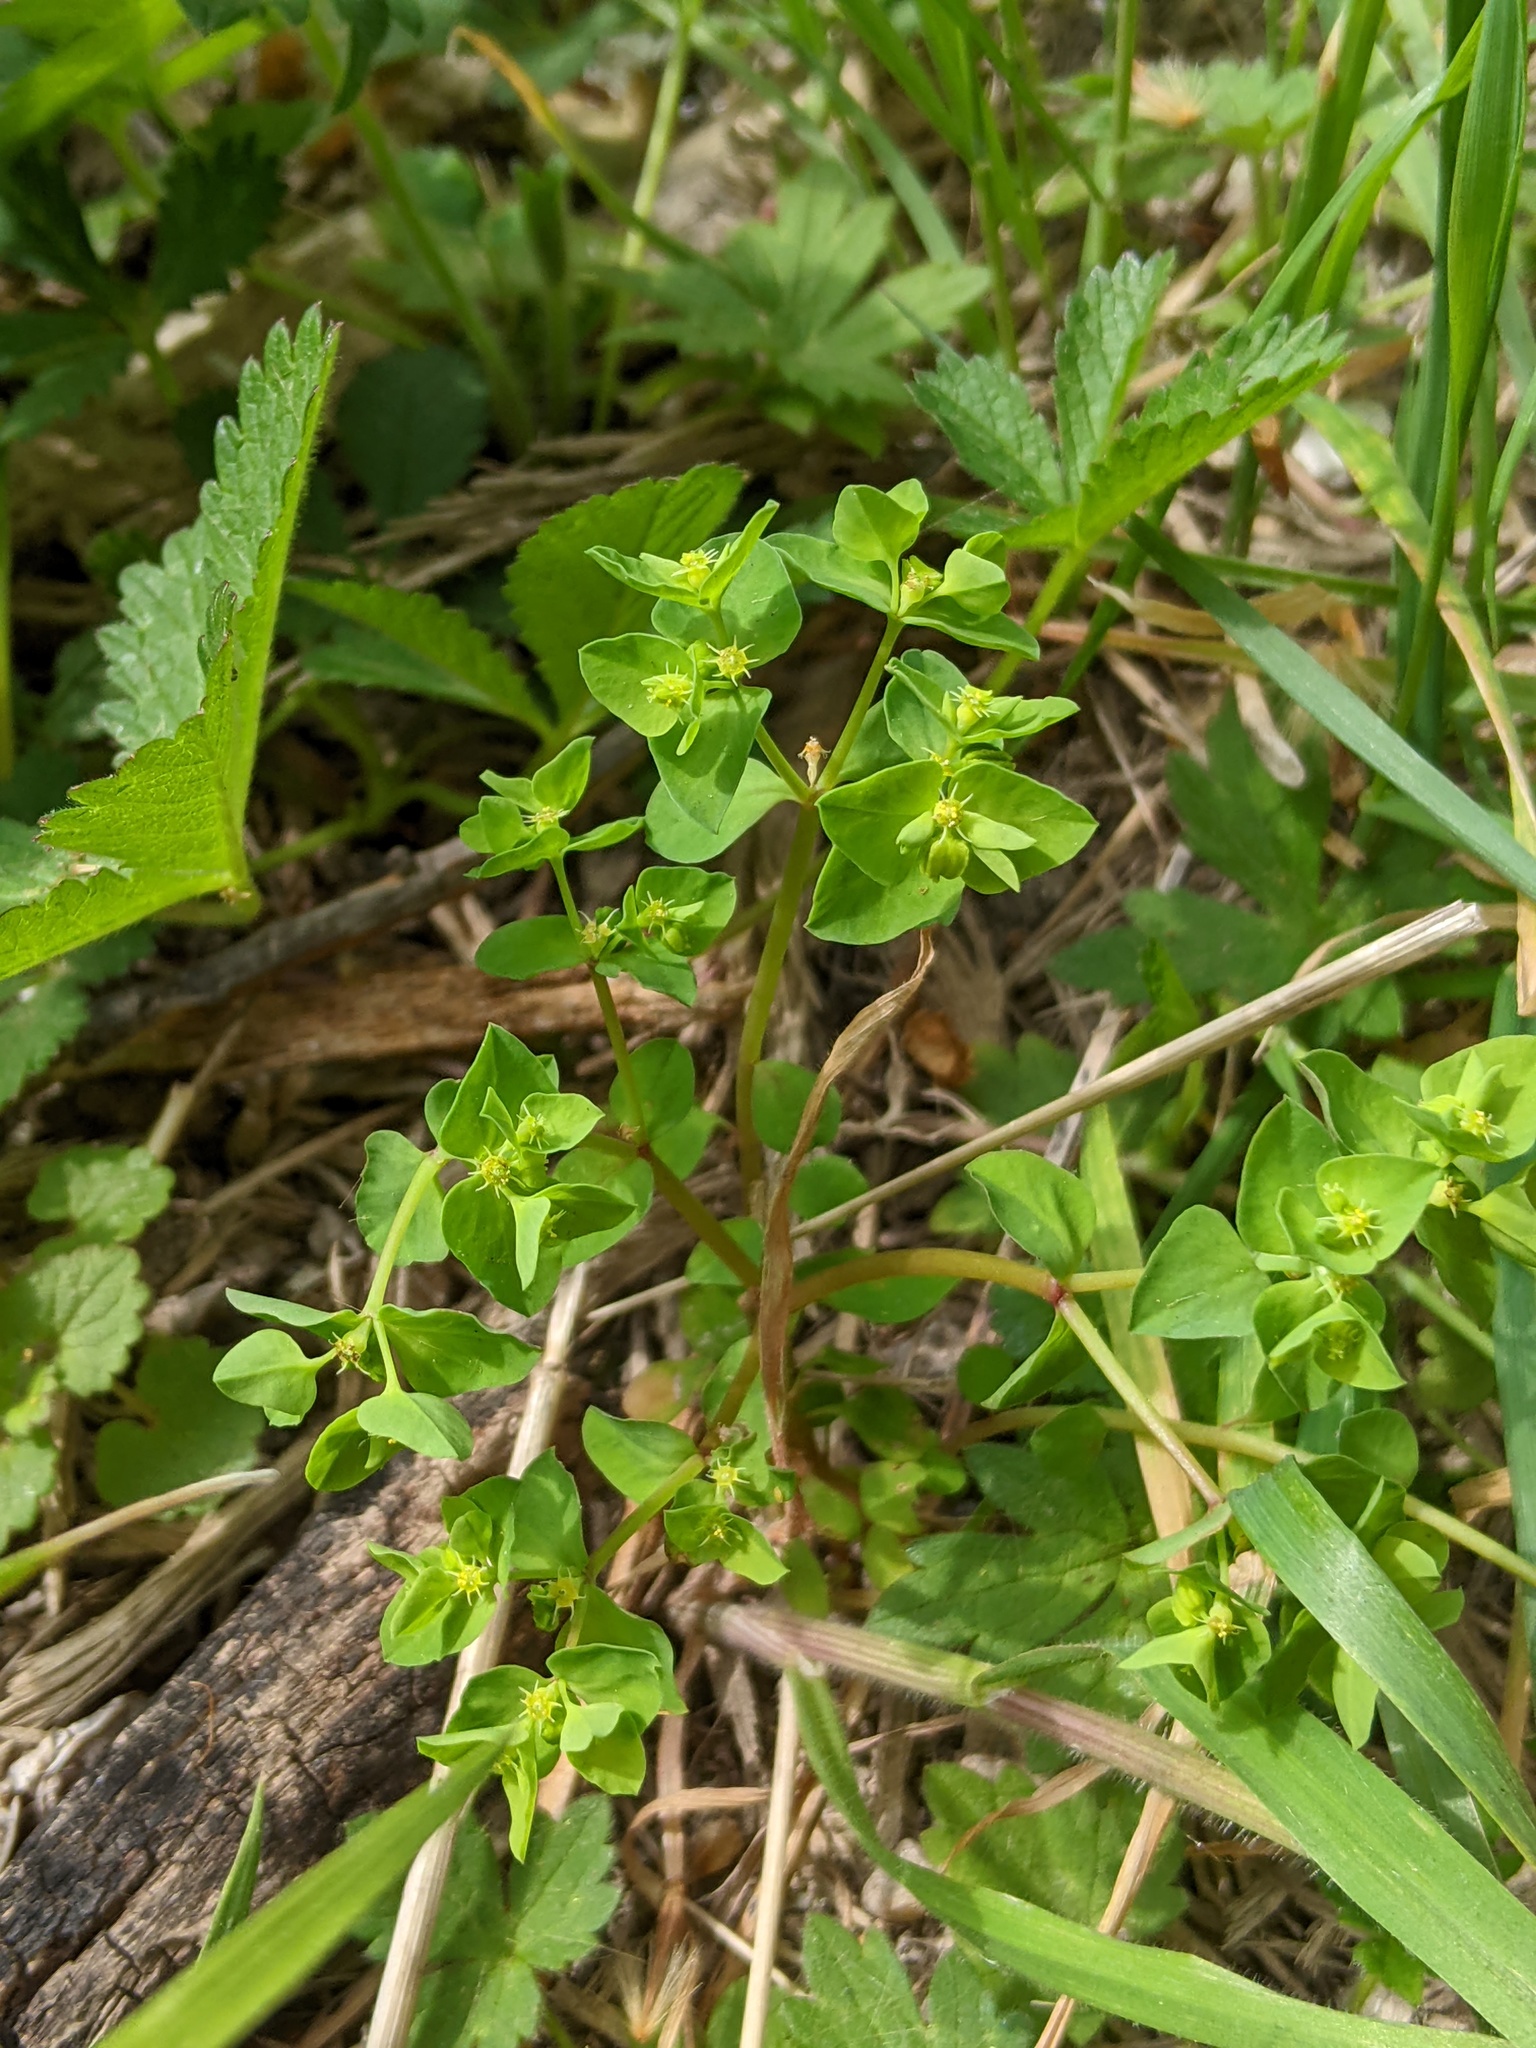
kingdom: Plantae
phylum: Tracheophyta
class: Magnoliopsida
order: Malpighiales
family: Euphorbiaceae
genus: Euphorbia
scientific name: Euphorbia peplus
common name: Petty spurge
